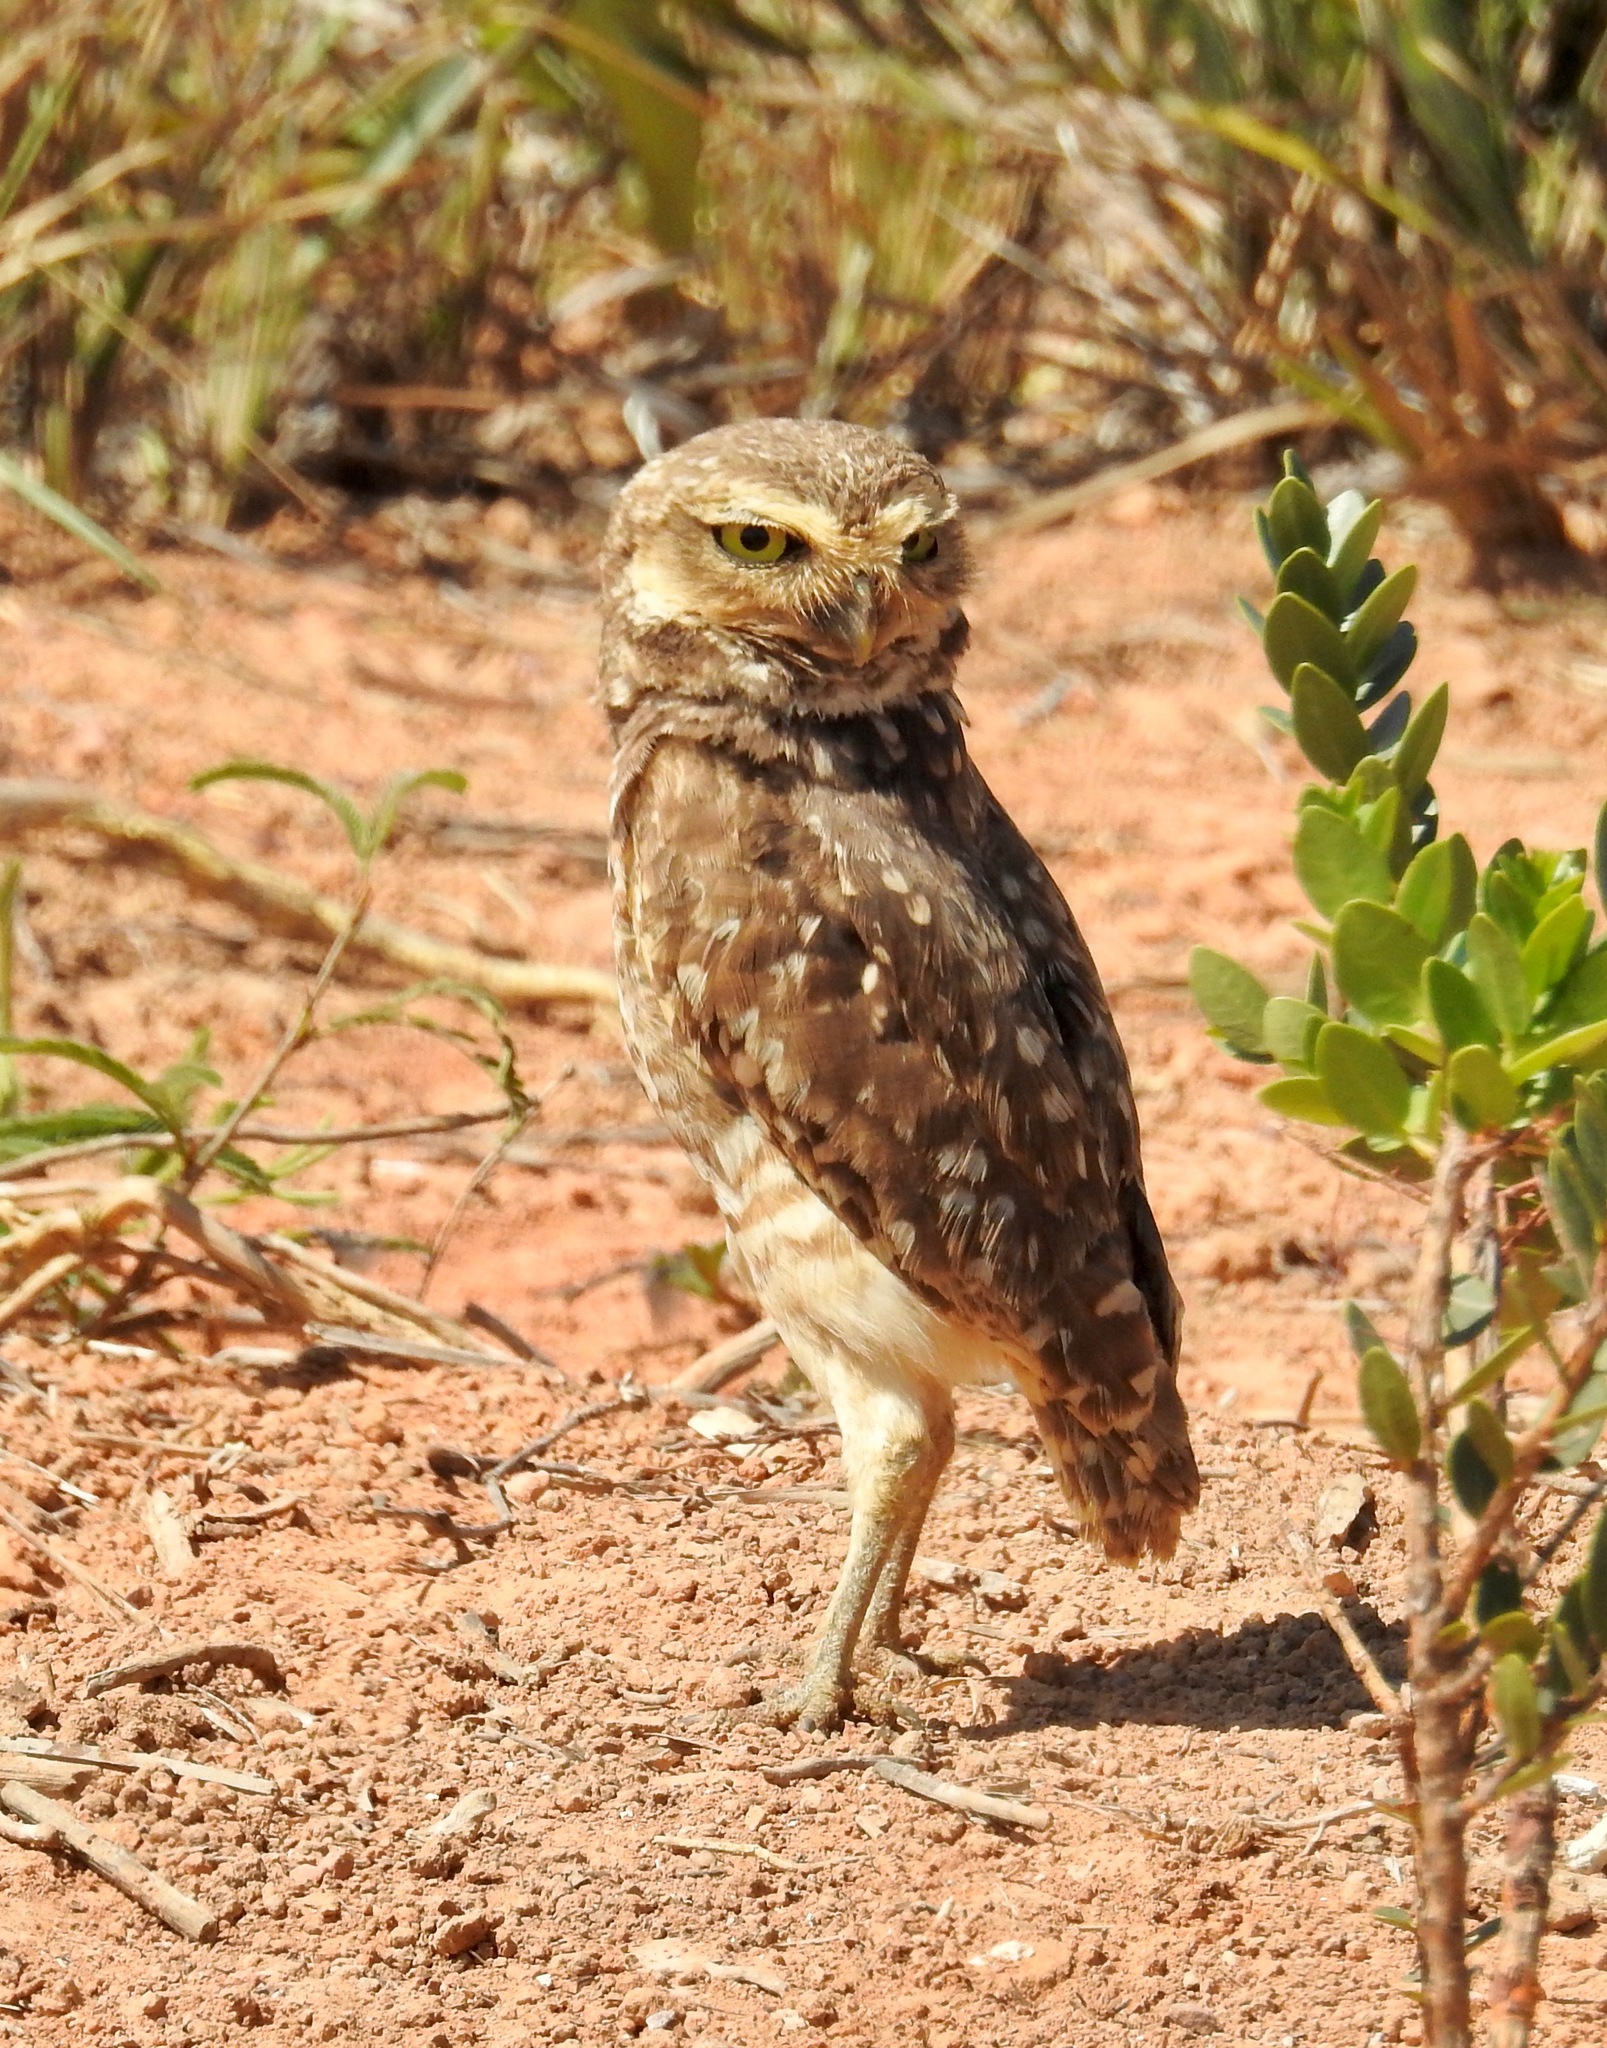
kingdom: Animalia
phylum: Chordata
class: Aves
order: Strigiformes
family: Strigidae
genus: Athene
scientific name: Athene cunicularia
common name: Burrowing owl
